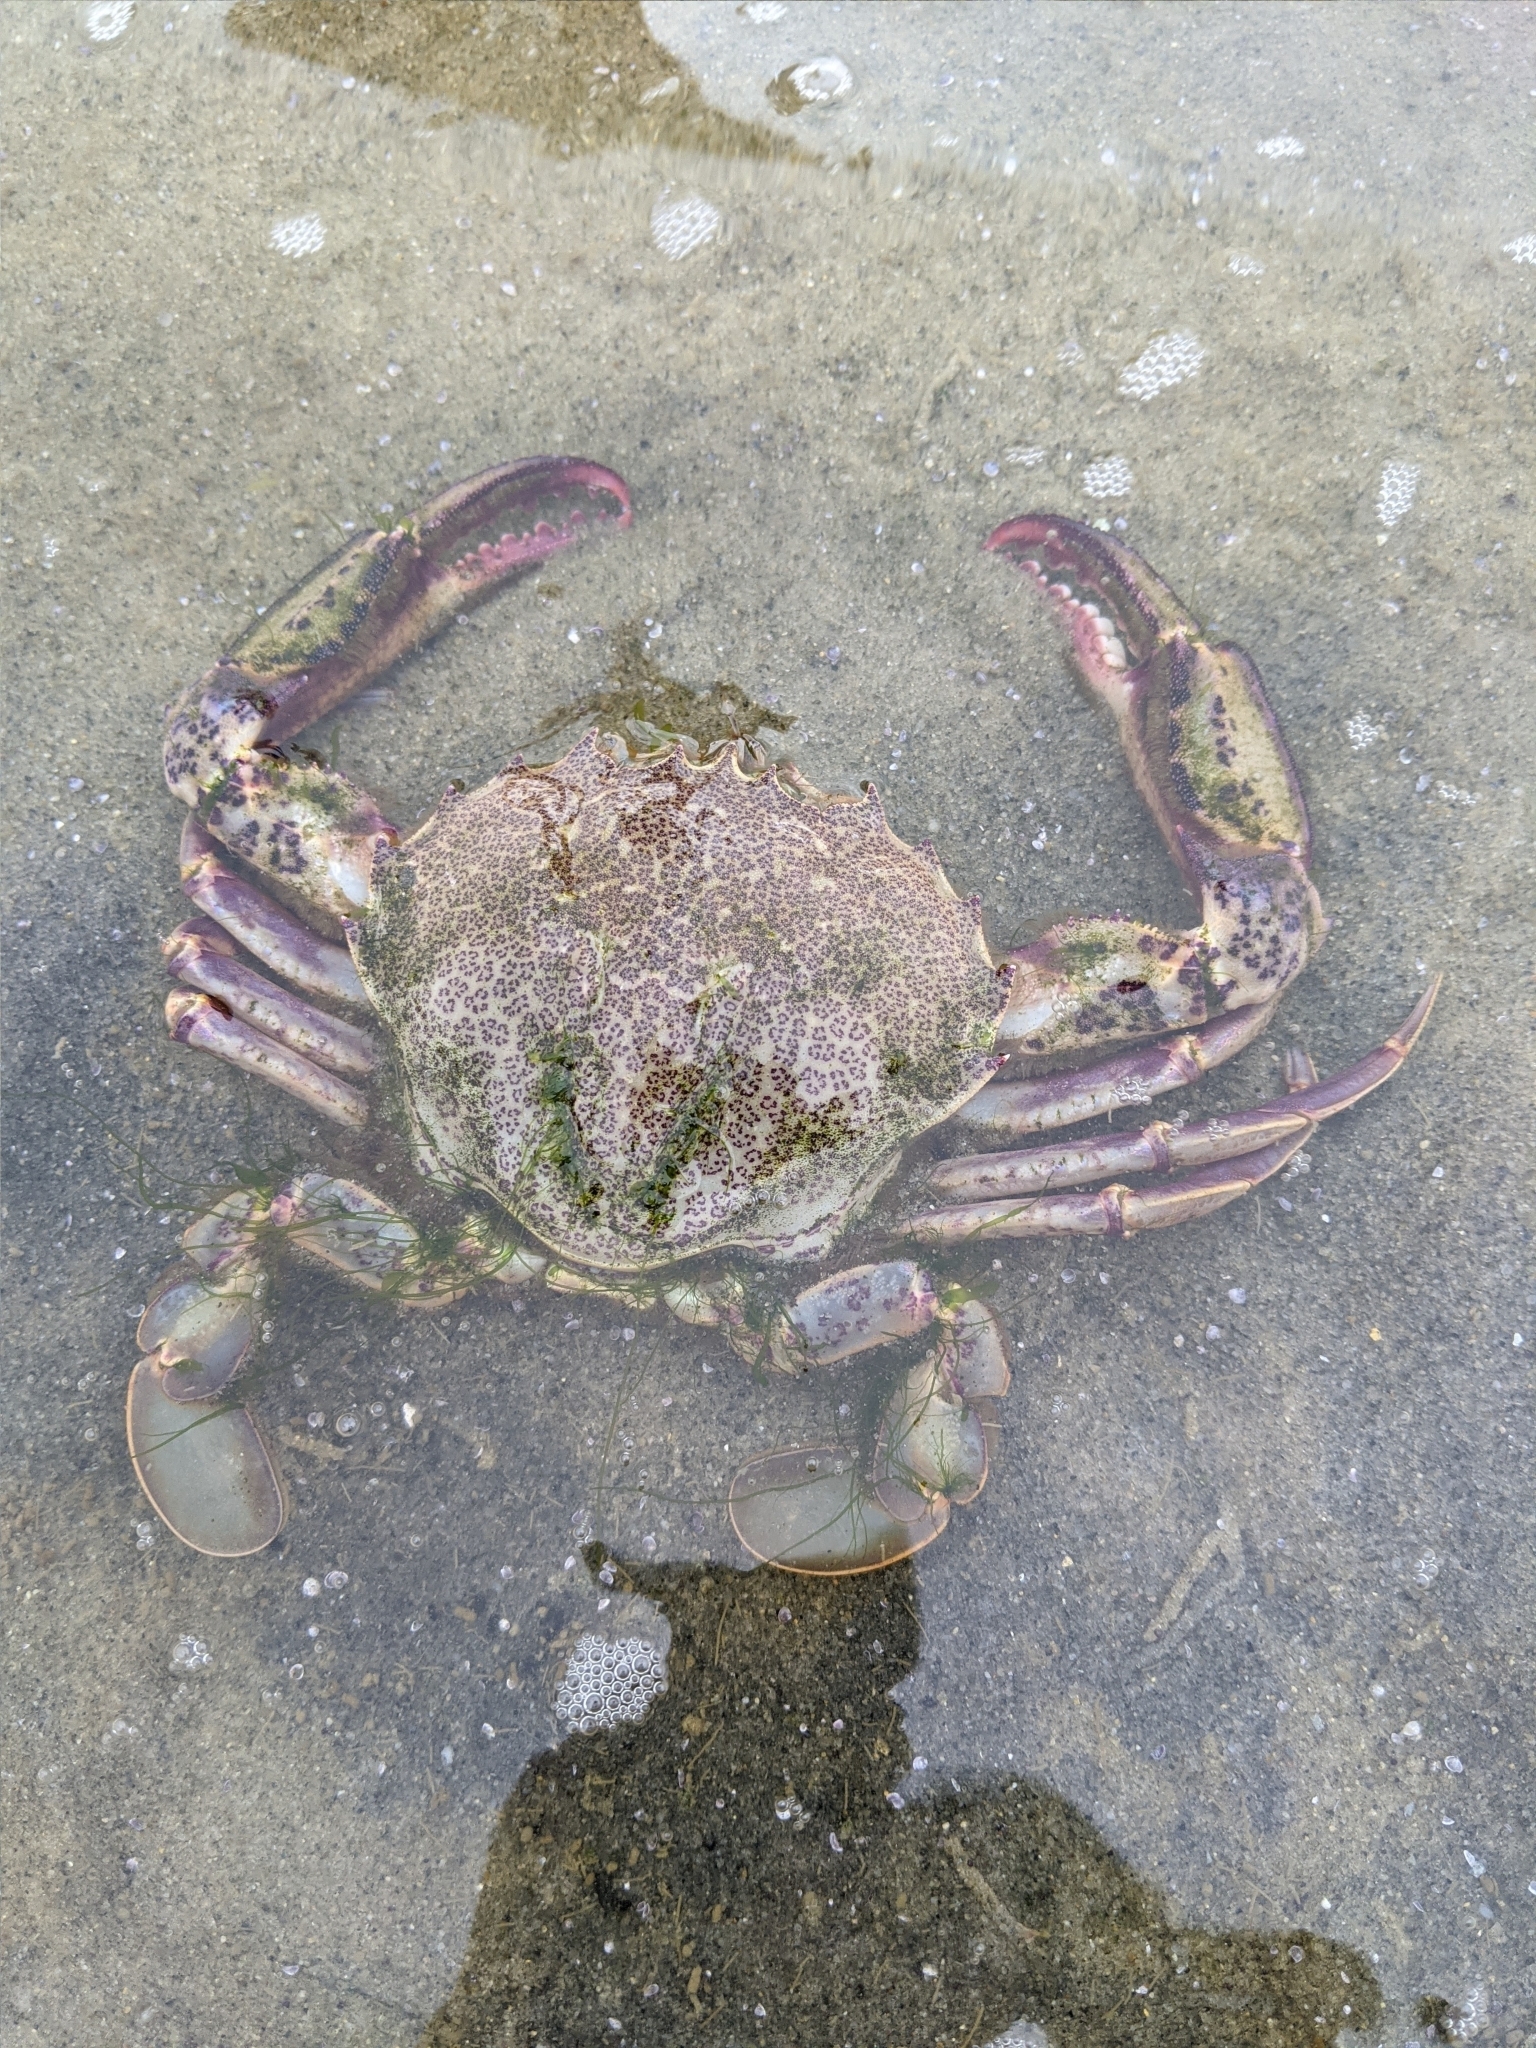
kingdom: Animalia
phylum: Arthropoda
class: Malacostraca
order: Decapoda
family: Ovalipidae
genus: Ovalipes
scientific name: Ovalipes ocellatus
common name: Lady crab
